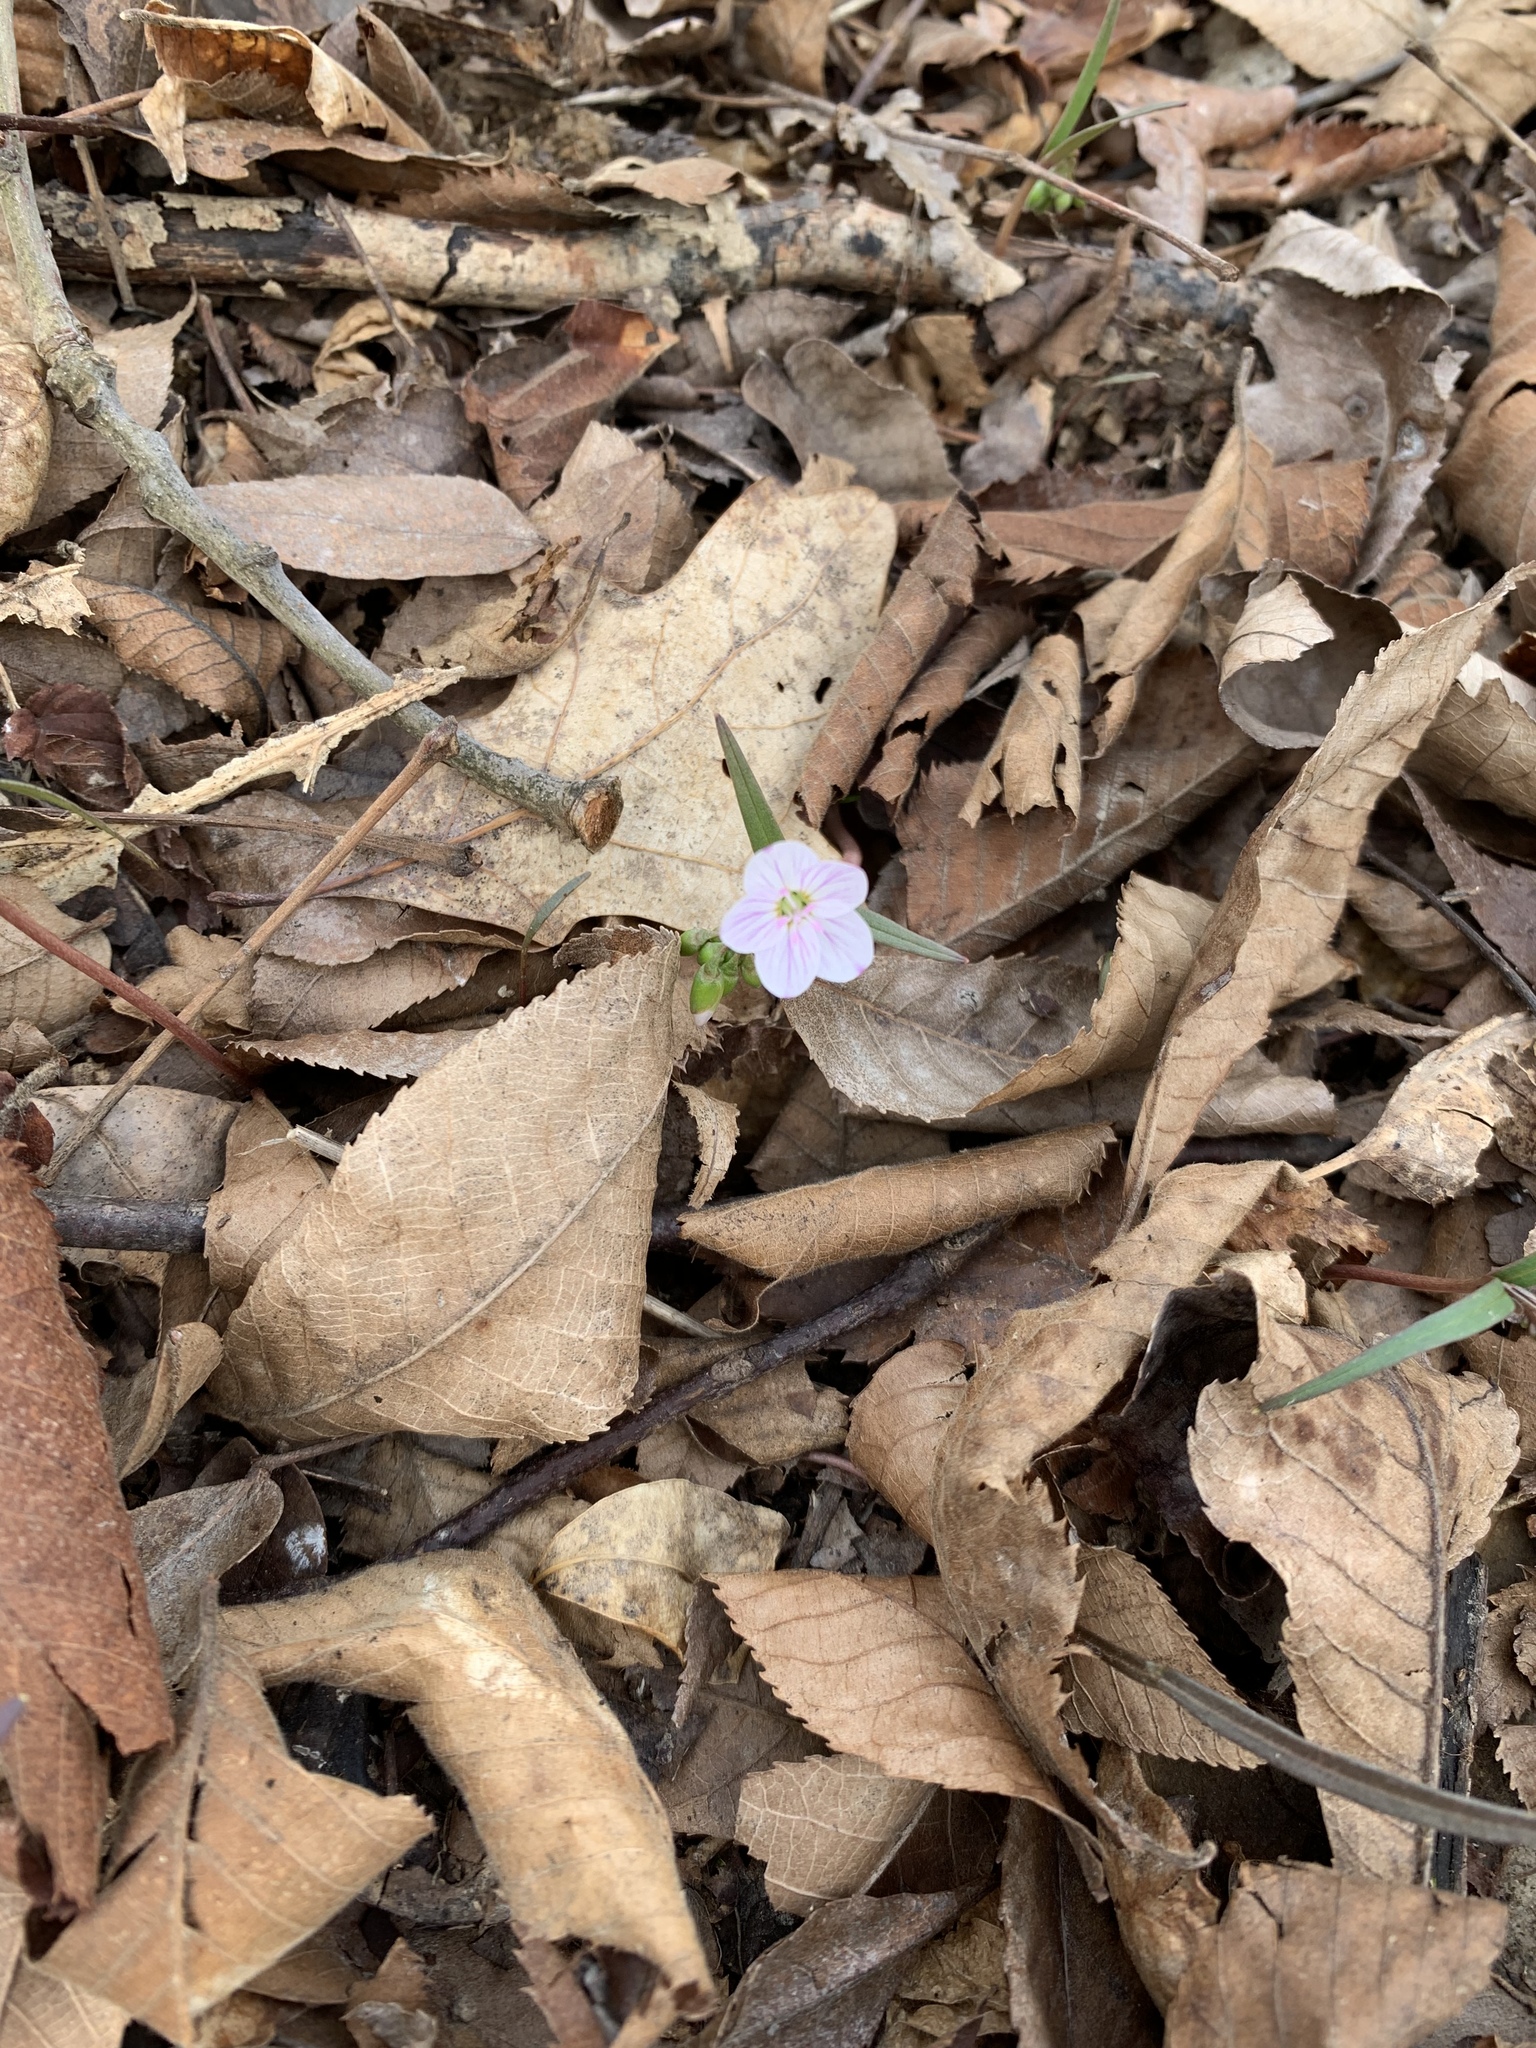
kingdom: Plantae
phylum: Tracheophyta
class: Magnoliopsida
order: Caryophyllales
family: Montiaceae
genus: Claytonia
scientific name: Claytonia virginica
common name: Virginia springbeauty
